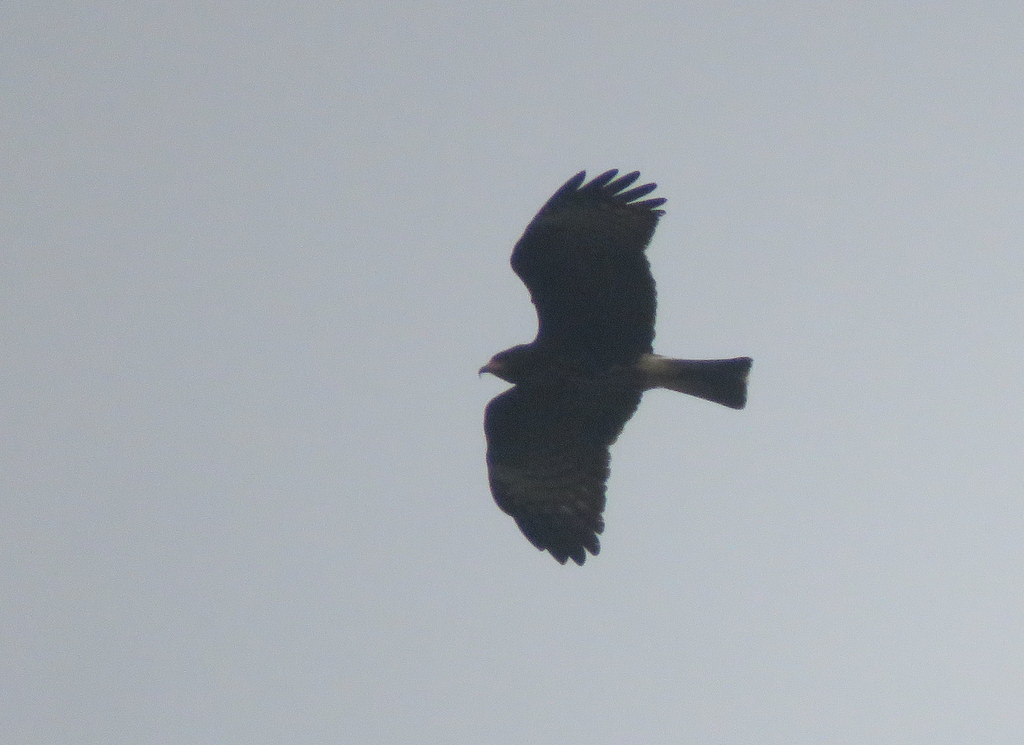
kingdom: Animalia
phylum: Chordata
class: Aves
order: Accipitriformes
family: Accipitridae
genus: Rostrhamus
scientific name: Rostrhamus sociabilis
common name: Snail kite
